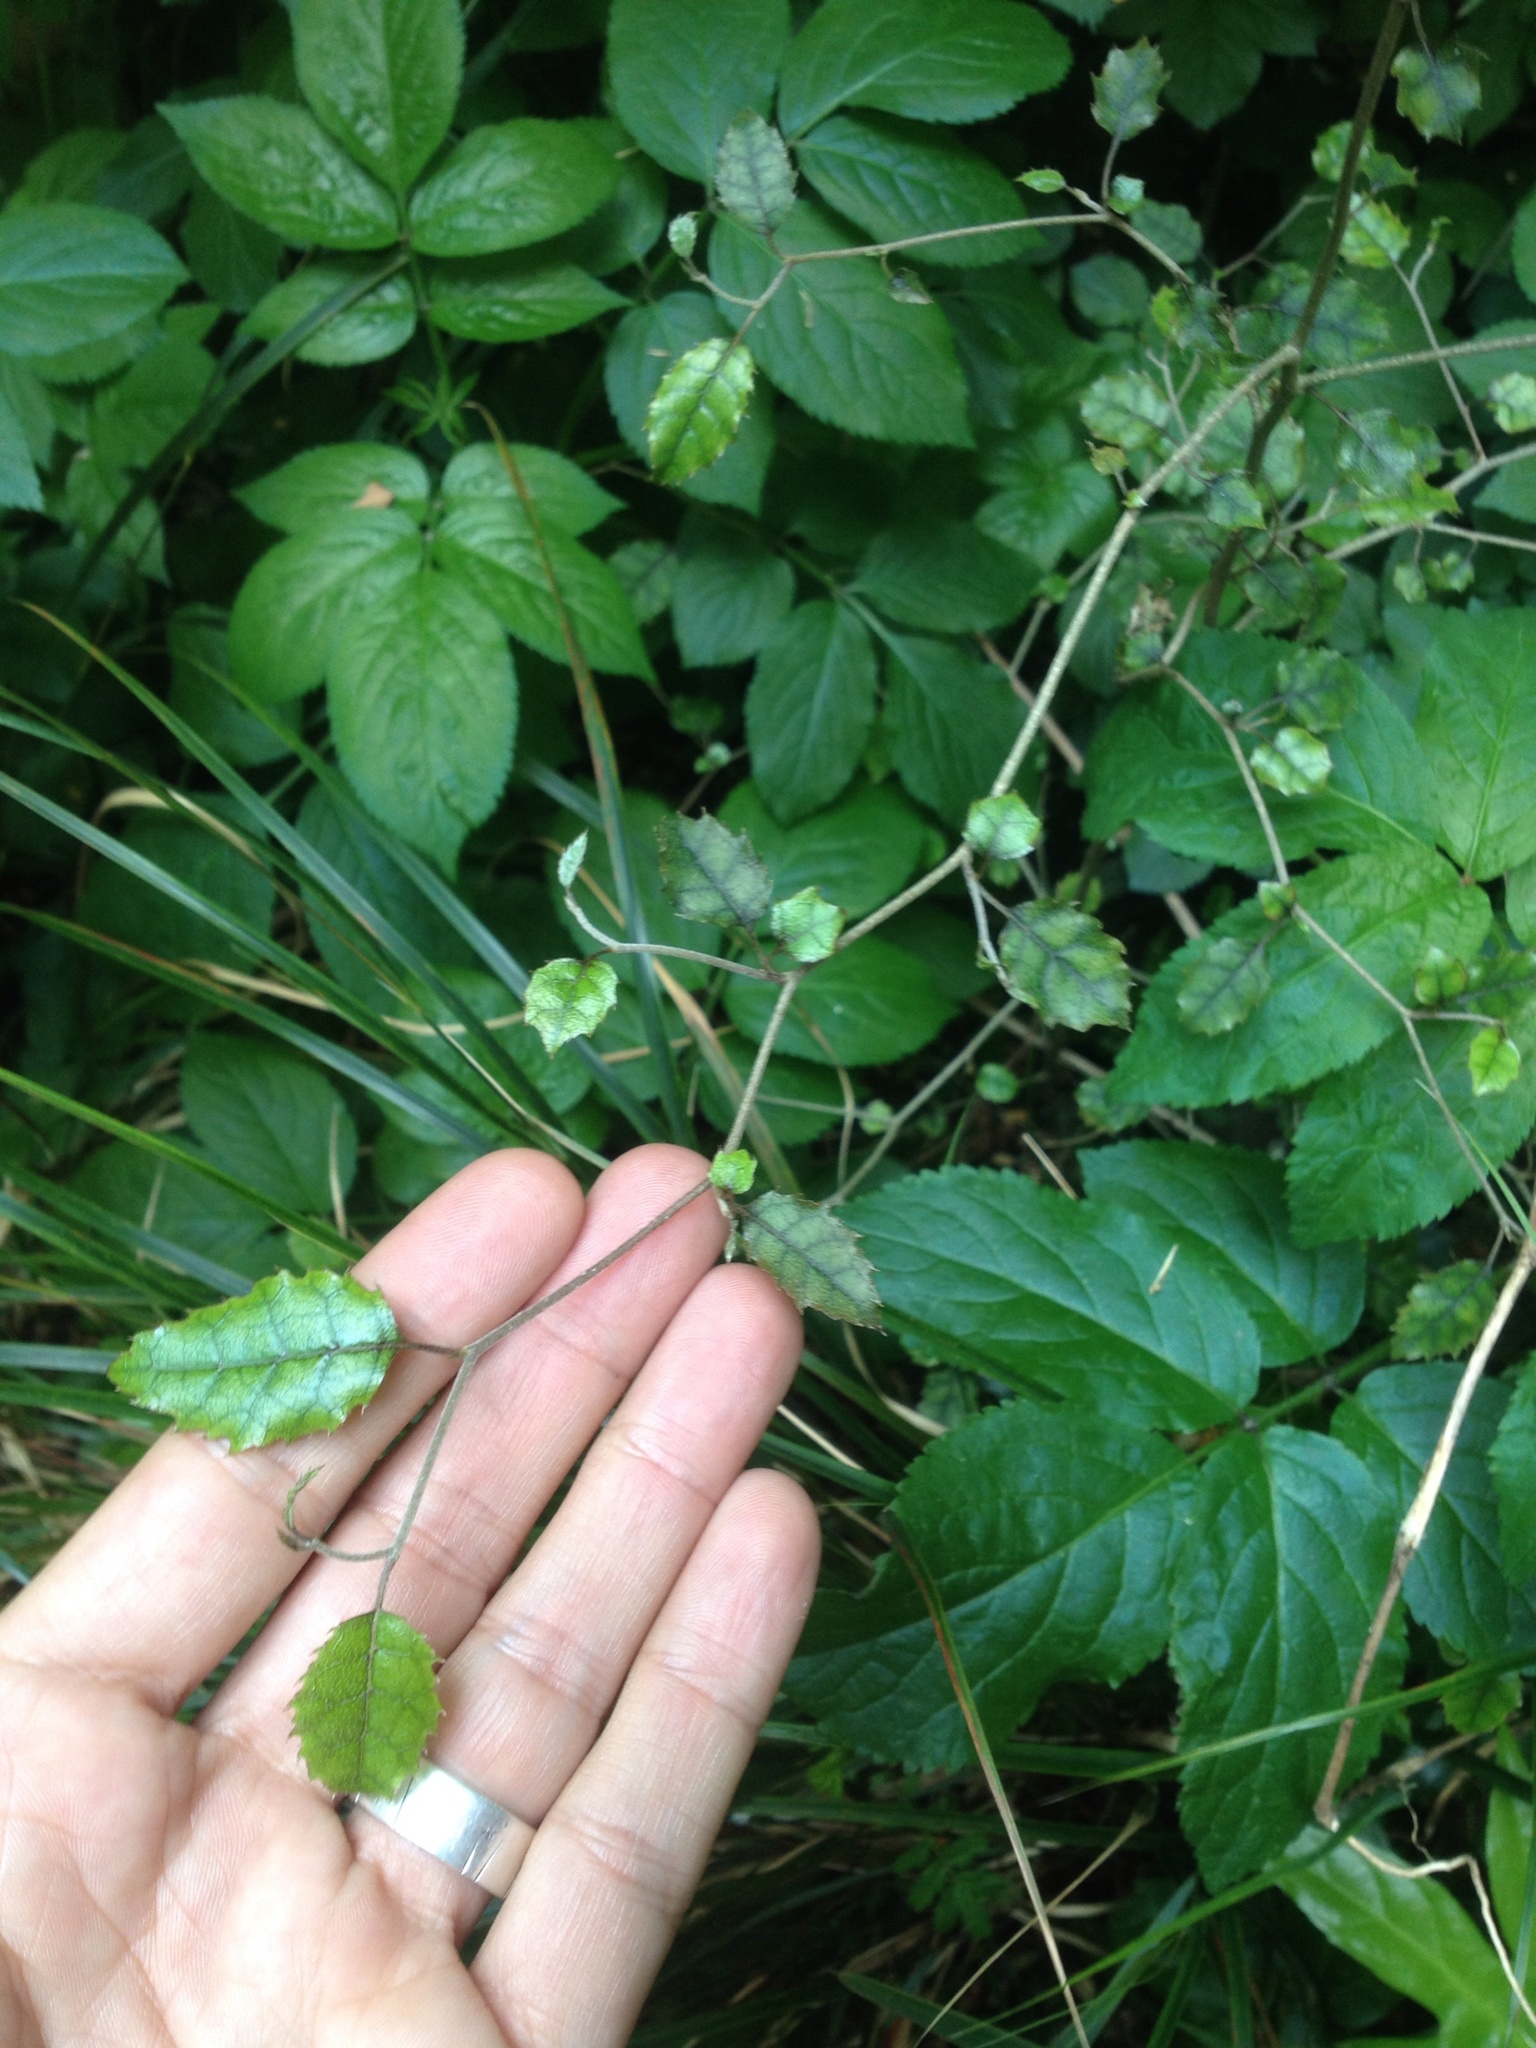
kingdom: Plantae
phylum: Tracheophyta
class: Magnoliopsida
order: Asterales
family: Rousseaceae
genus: Carpodetus
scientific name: Carpodetus serratus
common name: White mapau
